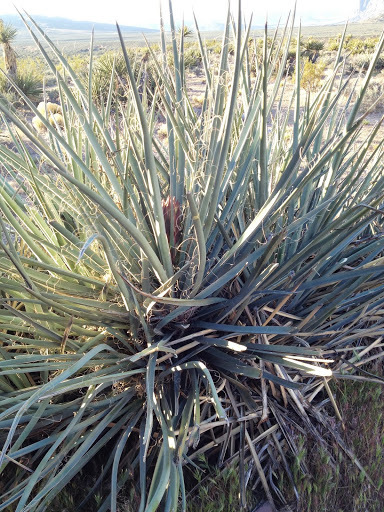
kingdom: Plantae
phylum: Tracheophyta
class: Liliopsida
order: Asparagales
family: Asparagaceae
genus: Yucca
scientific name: Yucca baccata
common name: Banana yucca
